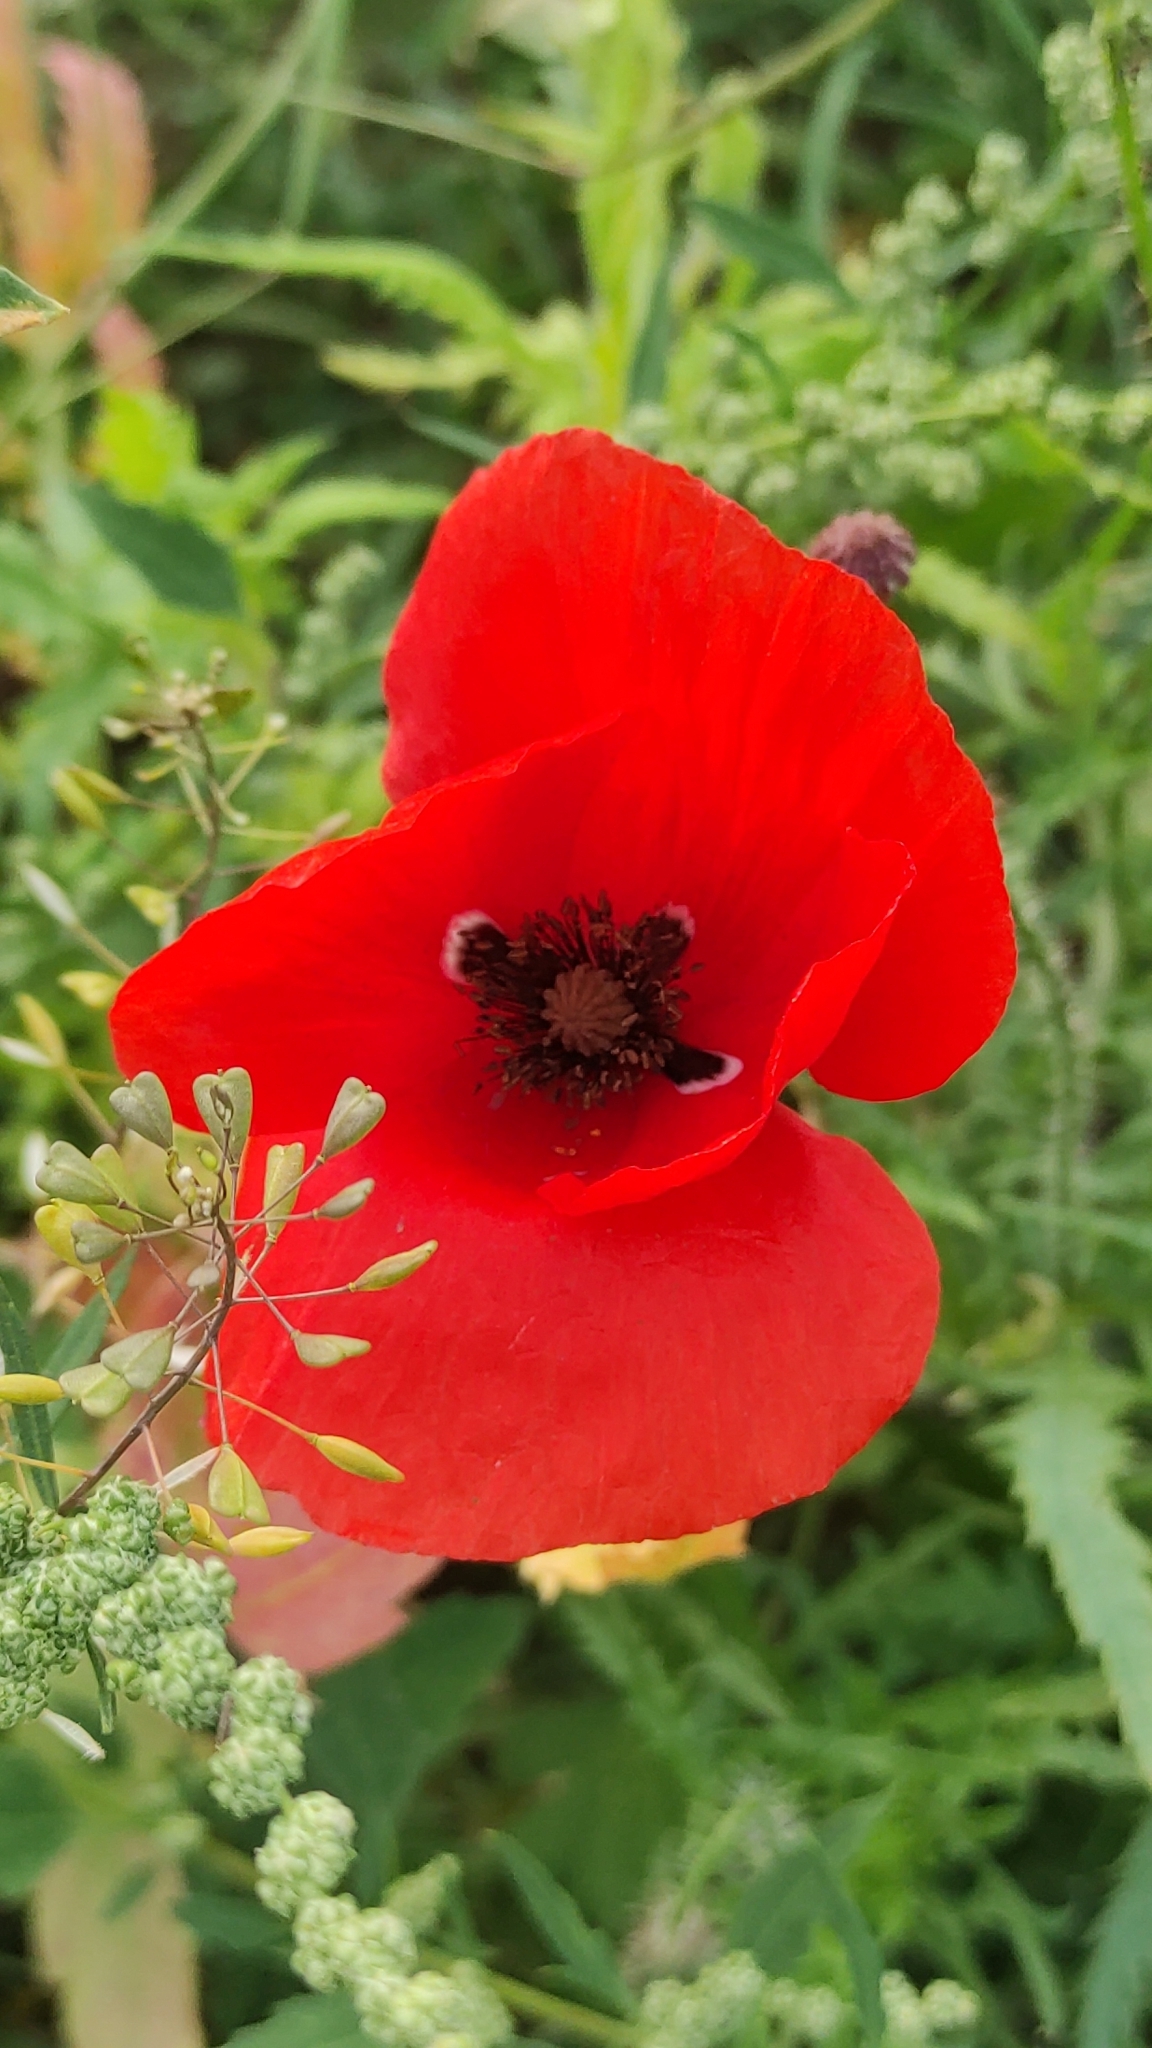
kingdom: Plantae
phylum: Tracheophyta
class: Magnoliopsida
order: Ranunculales
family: Papaveraceae
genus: Papaver
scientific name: Papaver rhoeas
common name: Corn poppy
